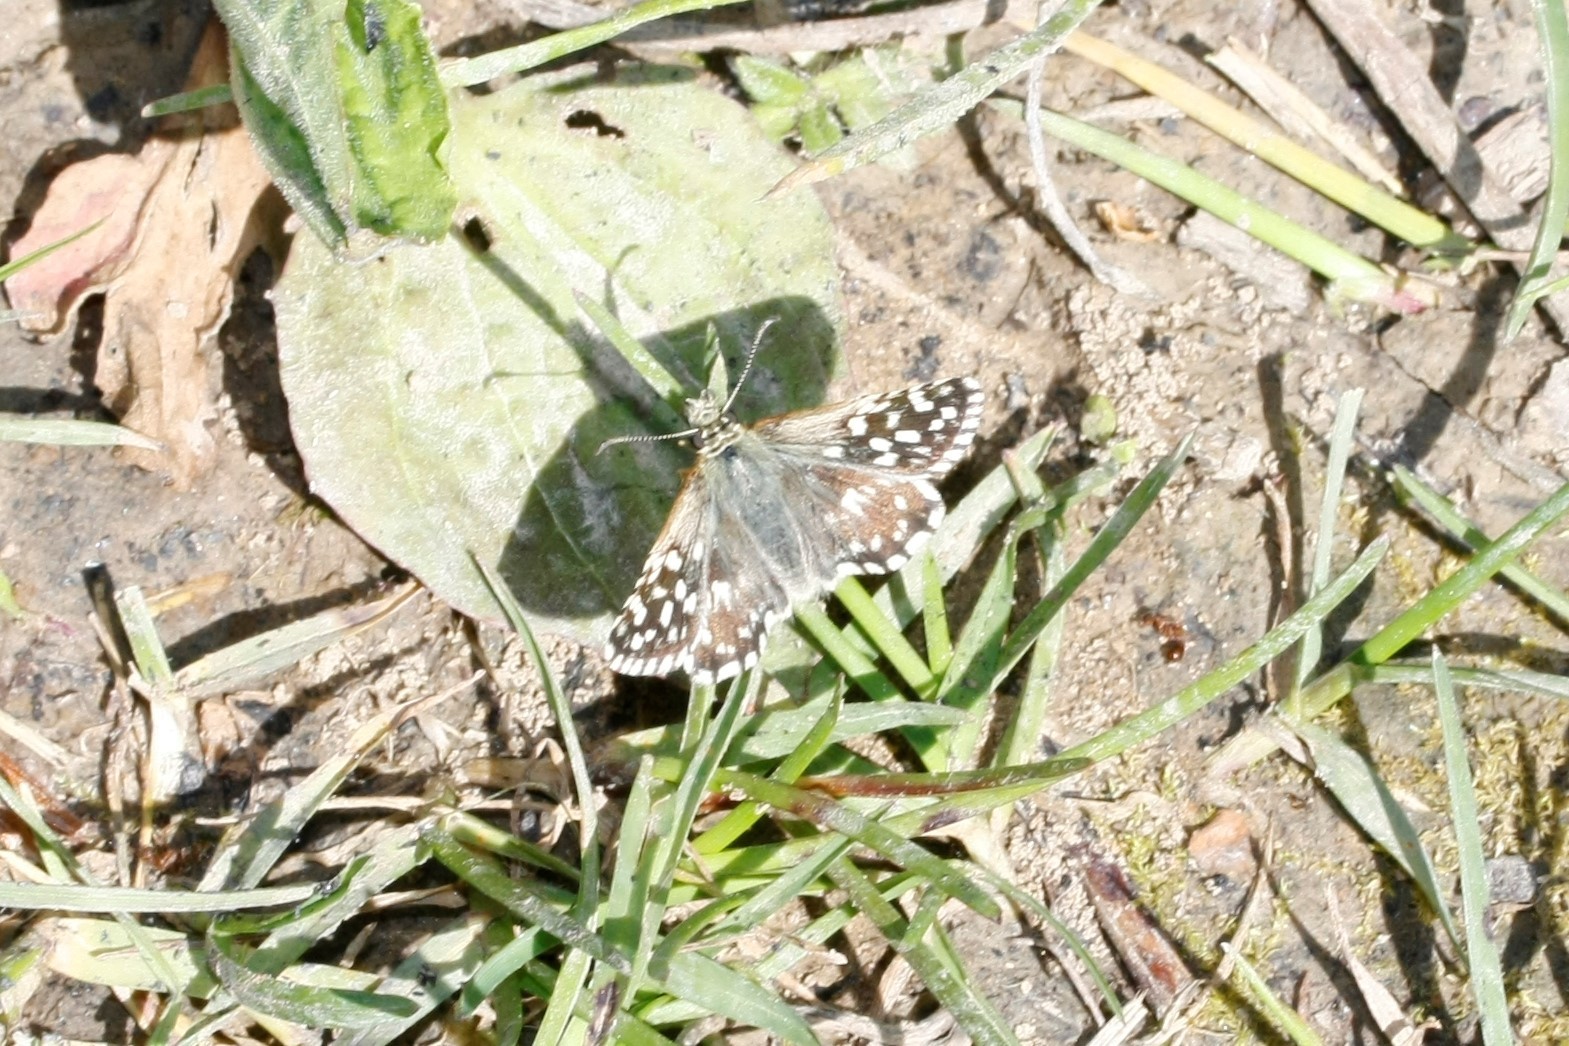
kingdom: Animalia
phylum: Arthropoda
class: Insecta
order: Lepidoptera
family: Hesperiidae
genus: Pyrgus
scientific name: Pyrgus malvae
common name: Grizzled skipper
